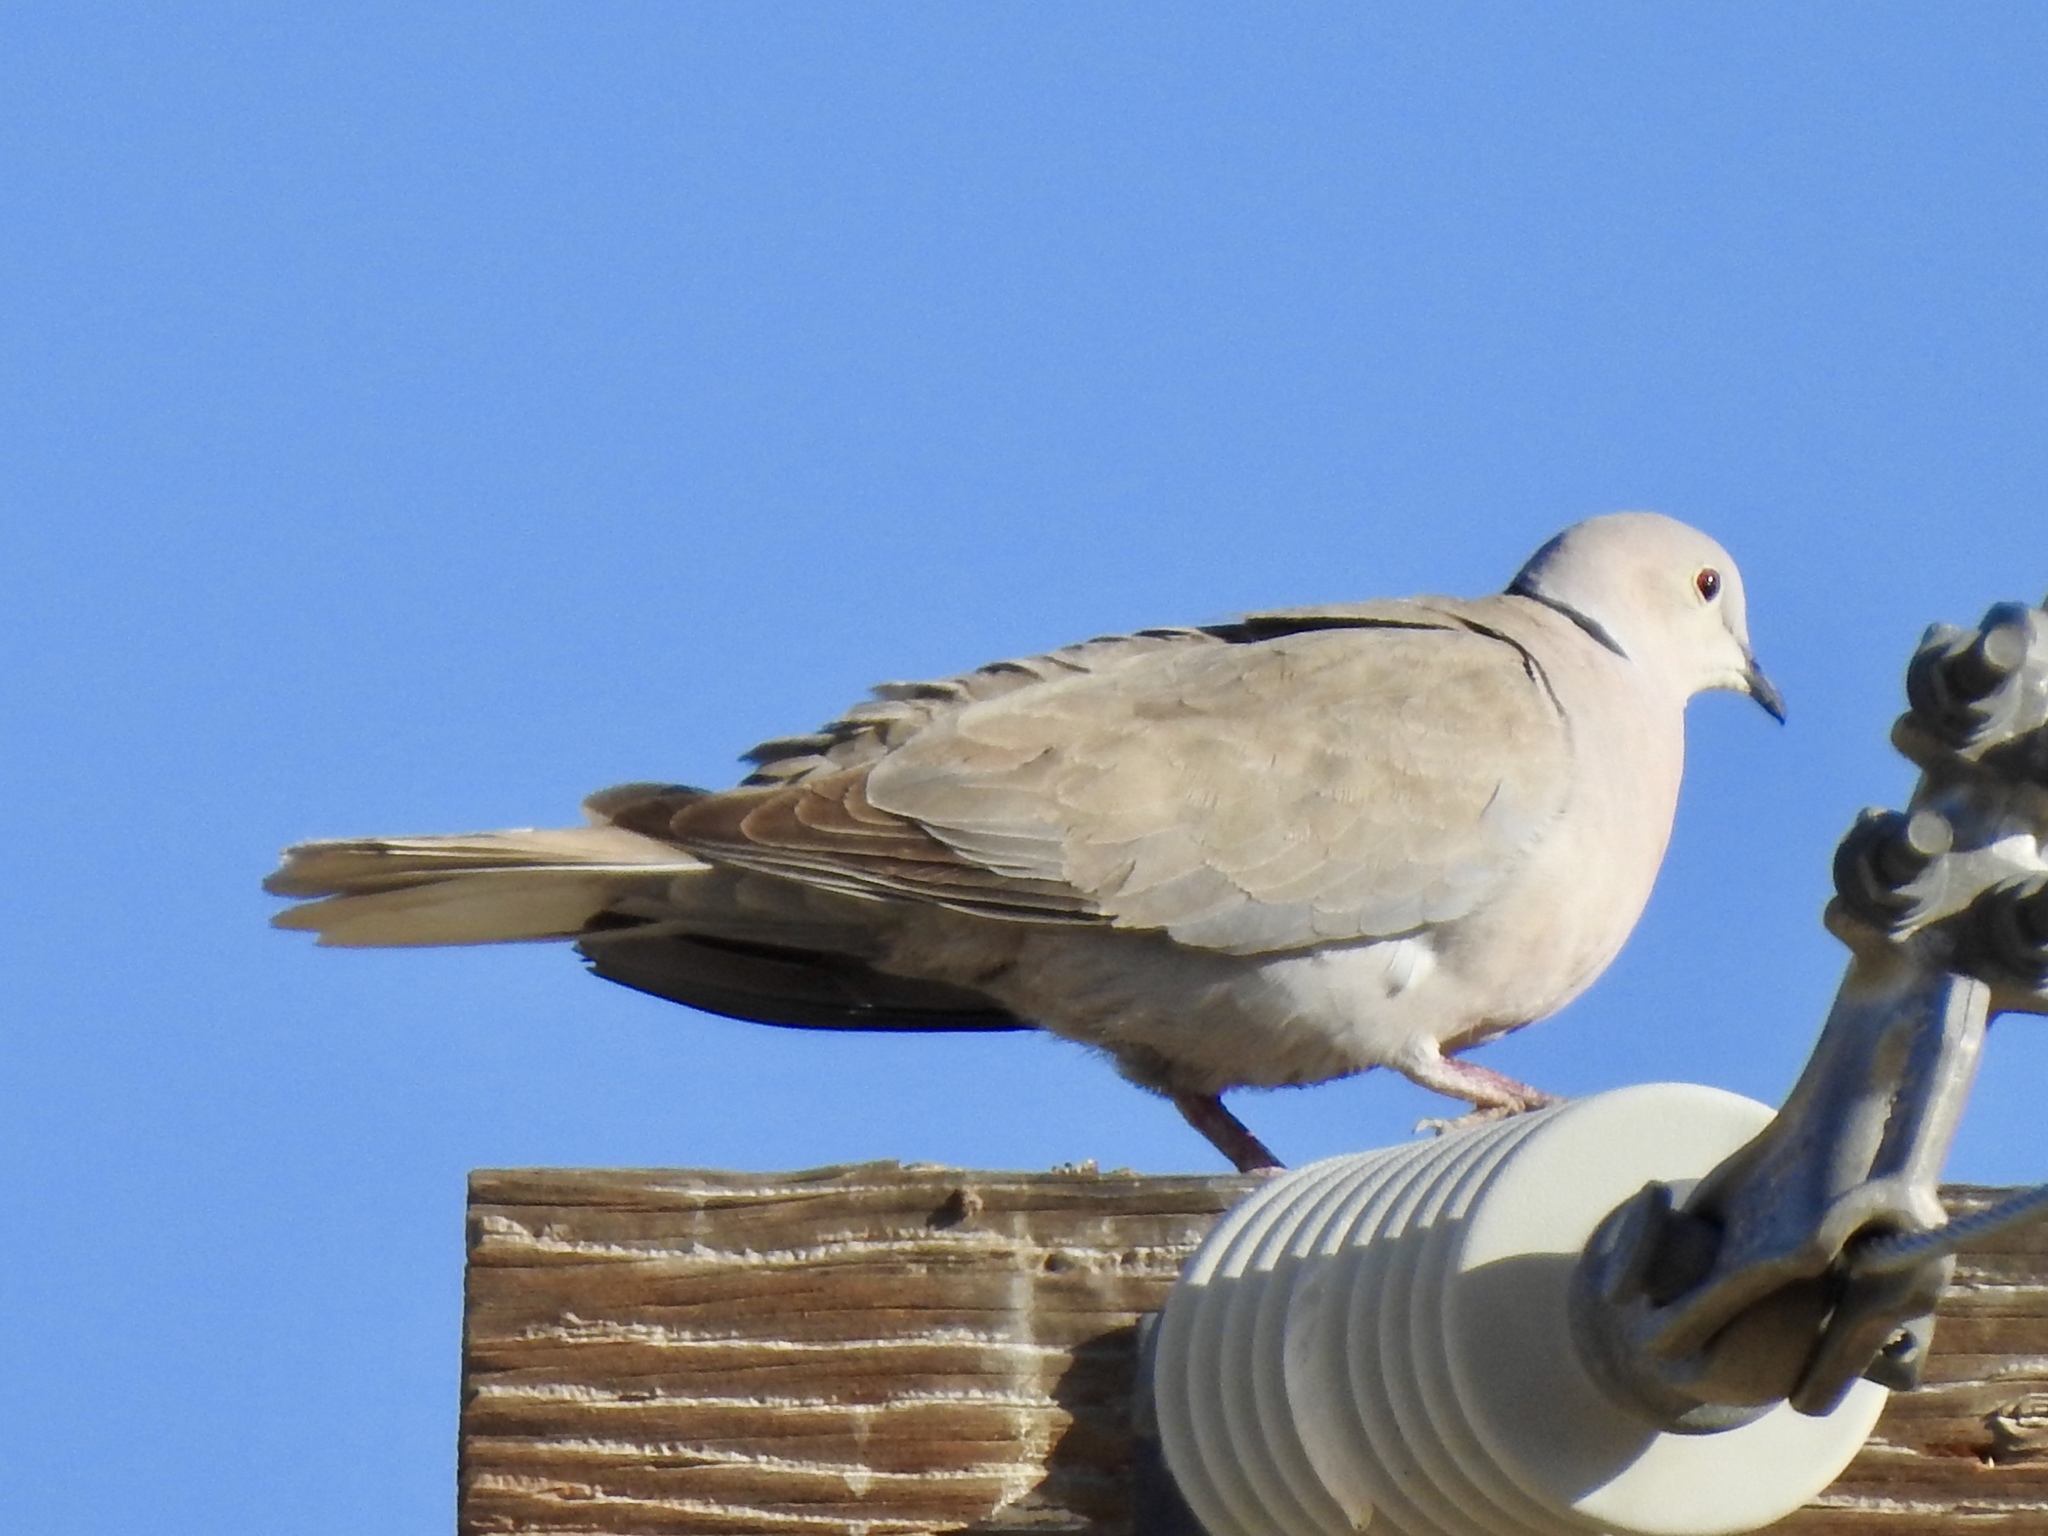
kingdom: Animalia
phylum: Chordata
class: Aves
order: Columbiformes
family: Columbidae
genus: Streptopelia
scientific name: Streptopelia decaocto
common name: Eurasian collared dove
